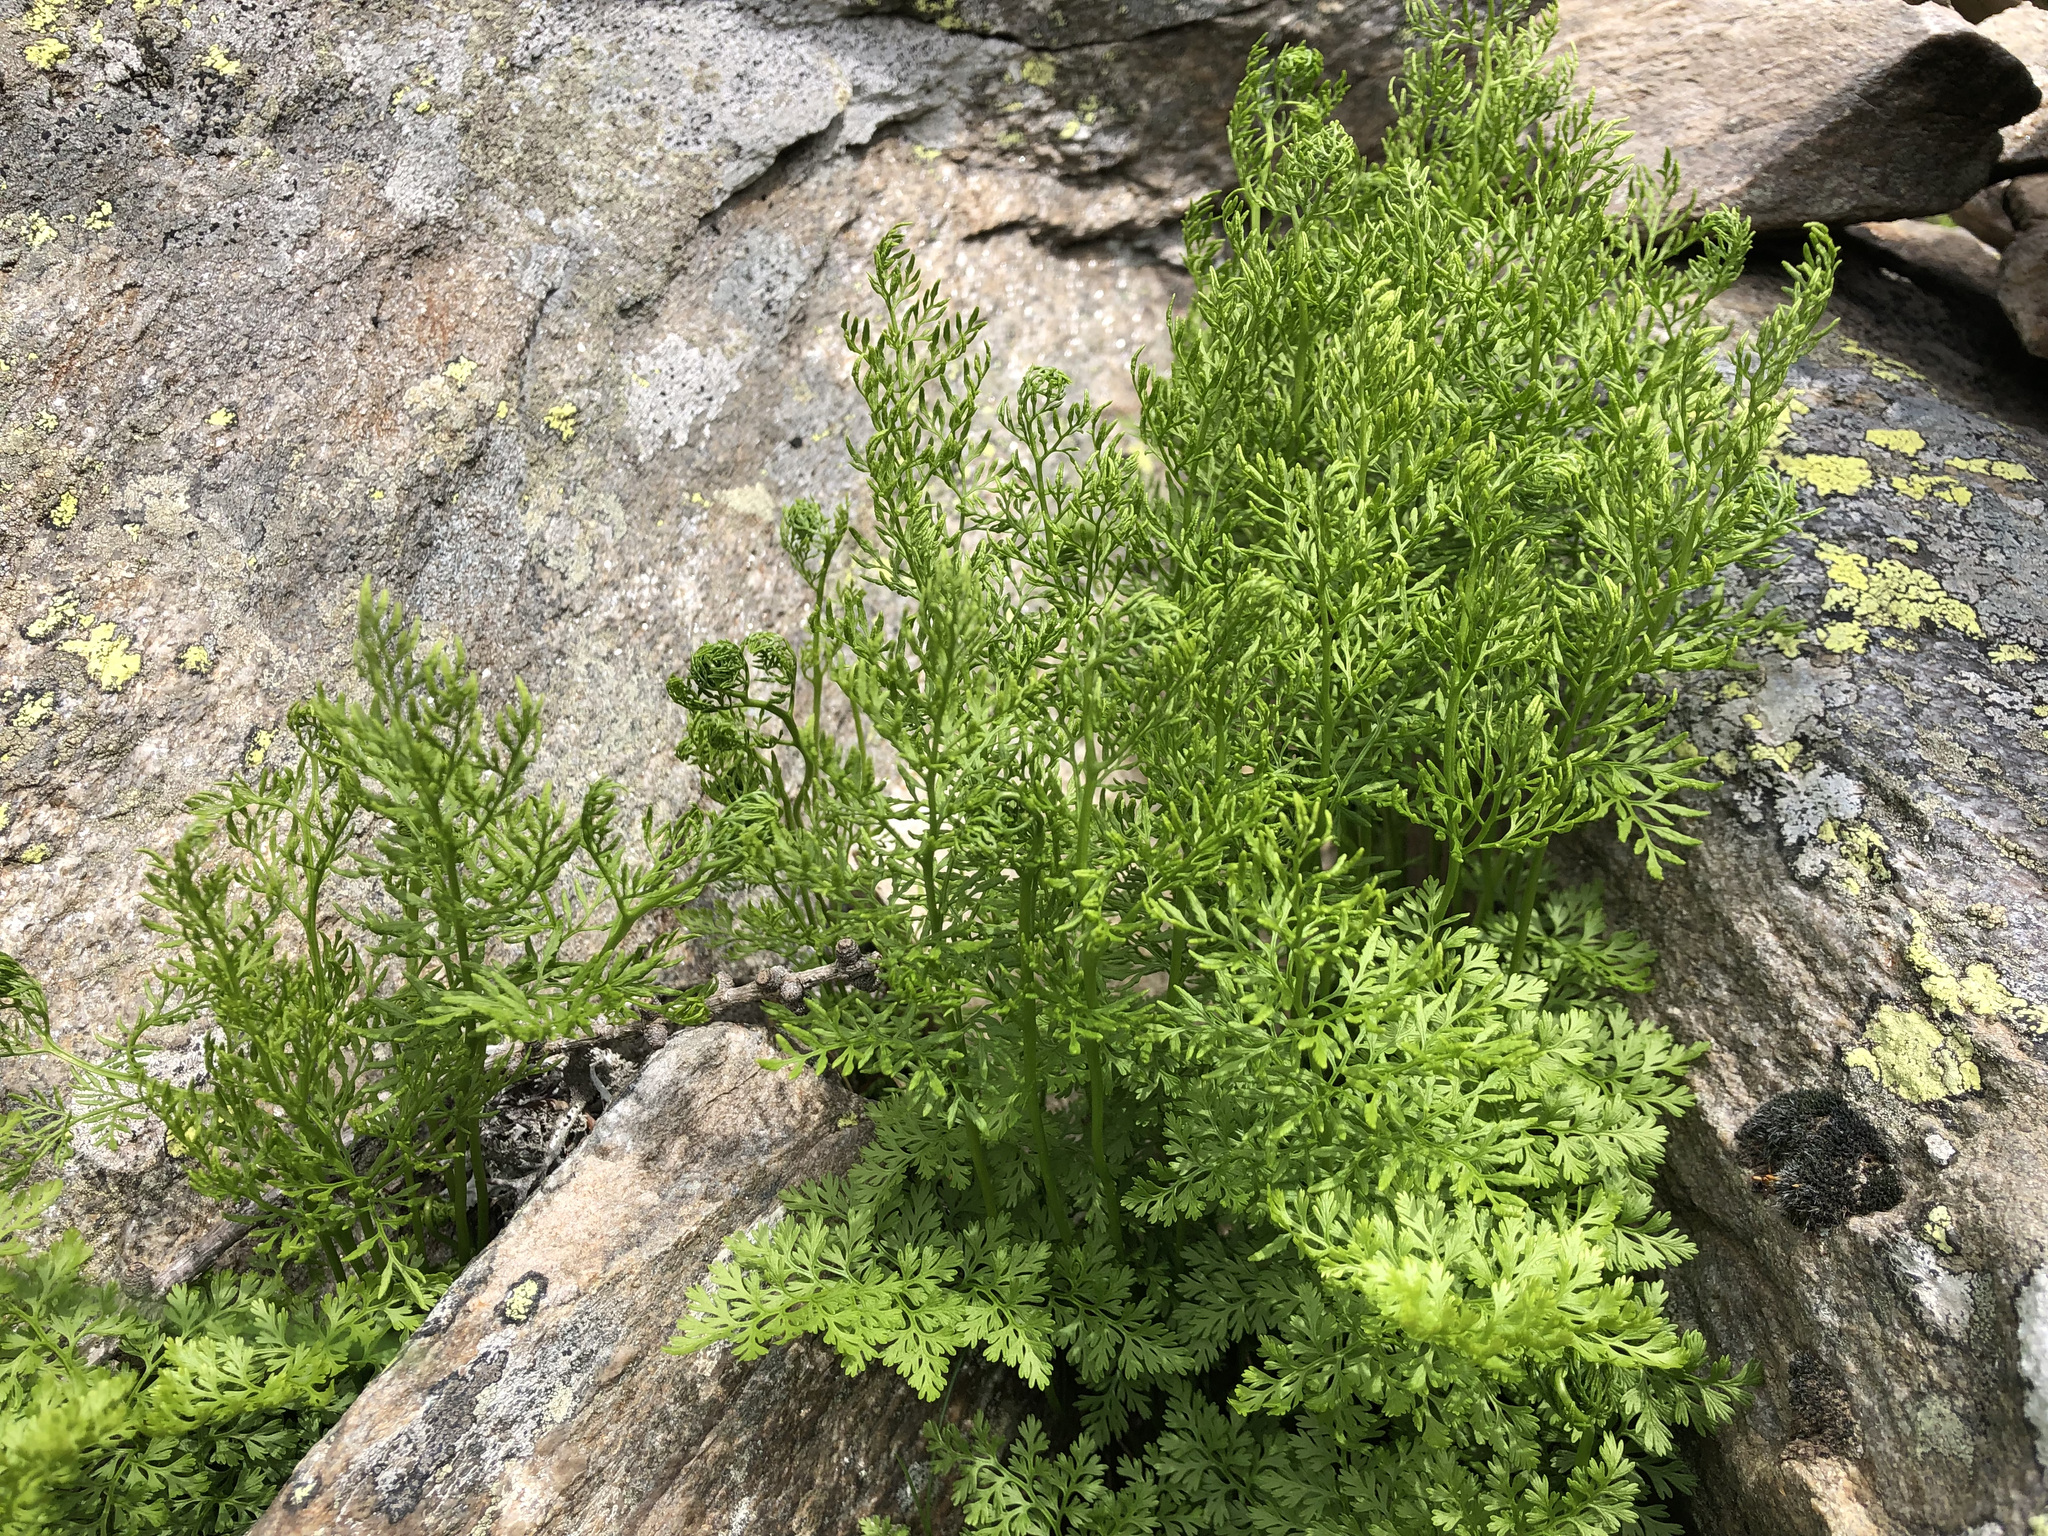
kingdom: Plantae
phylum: Tracheophyta
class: Polypodiopsida
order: Polypodiales
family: Pteridaceae
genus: Cryptogramma
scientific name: Cryptogramma crispa
